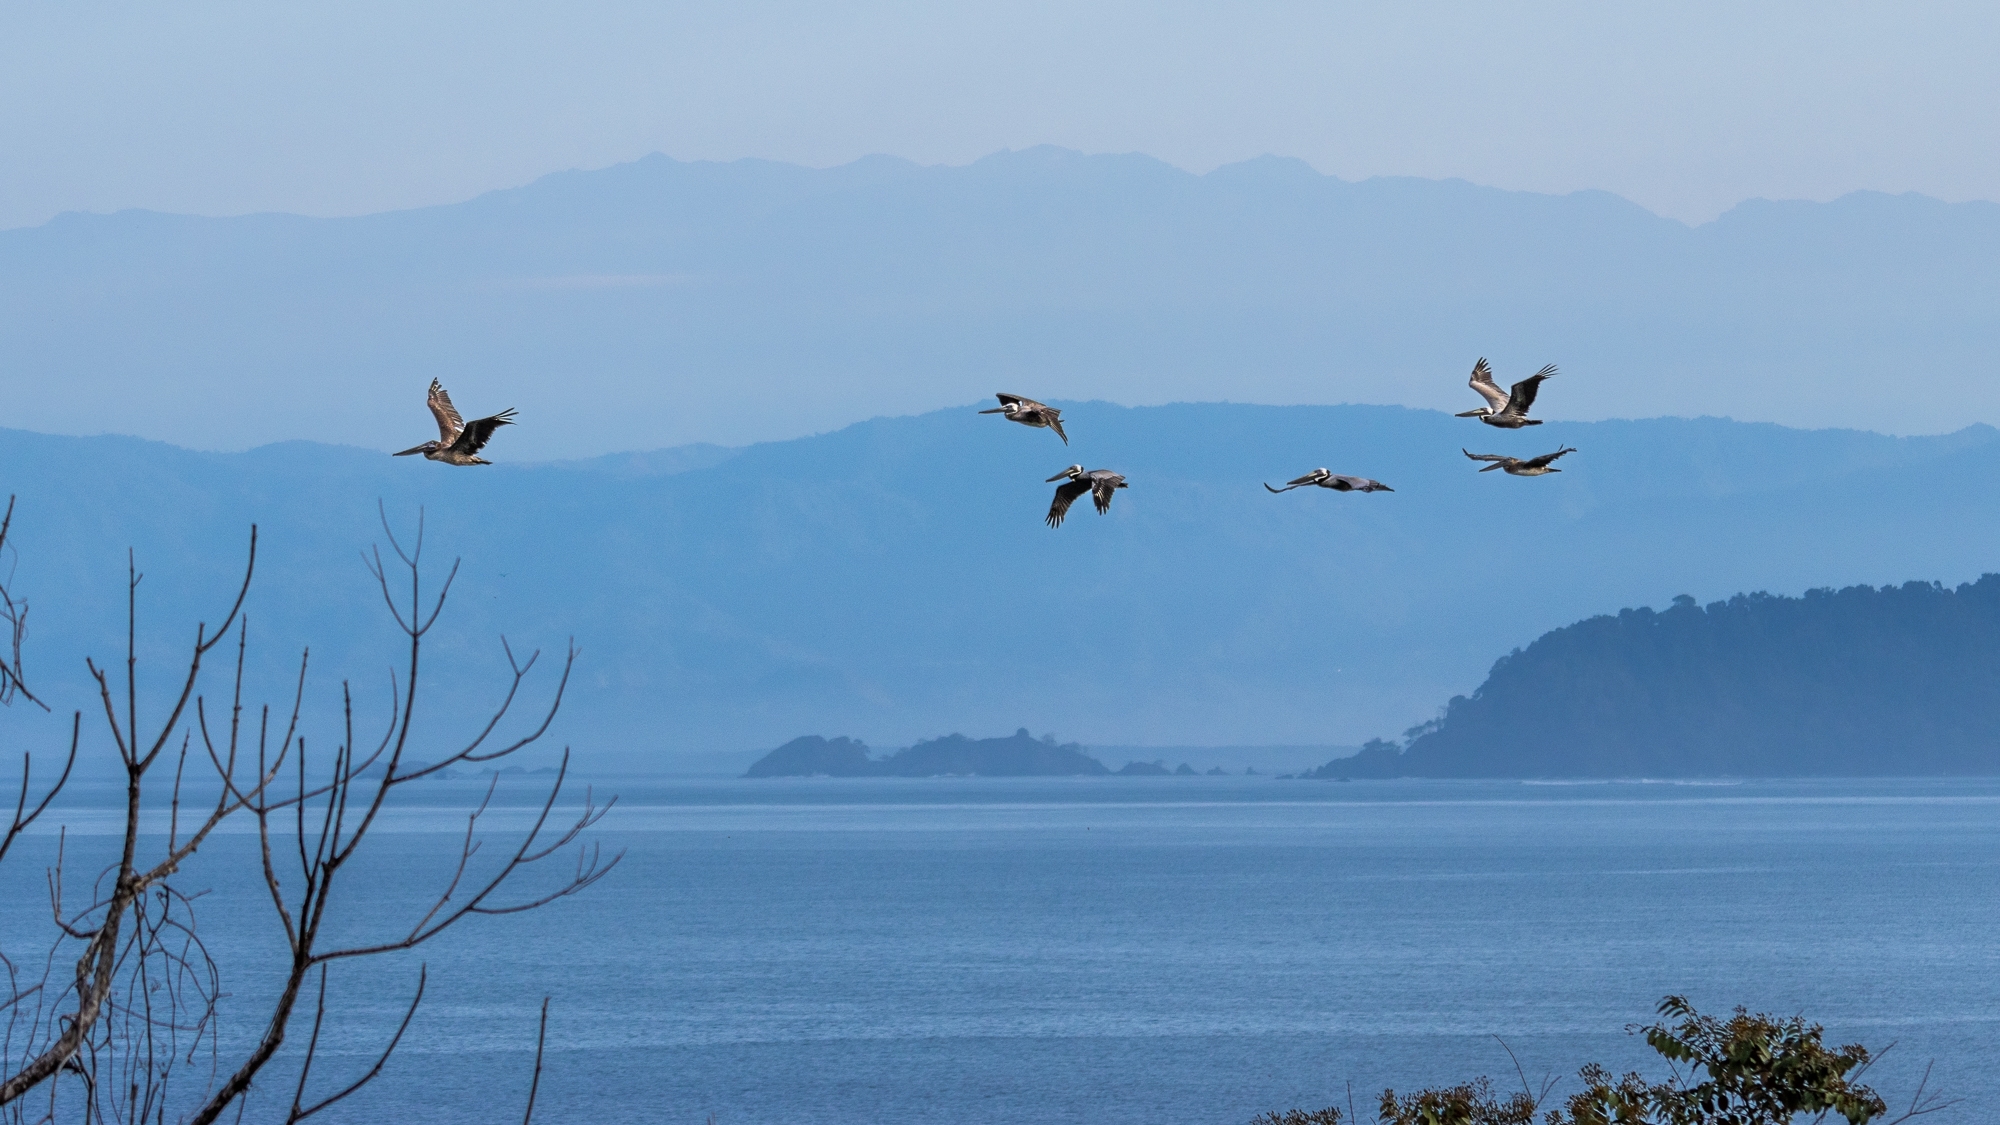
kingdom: Animalia
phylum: Chordata
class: Aves
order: Pelecaniformes
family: Pelecanidae
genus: Pelecanus
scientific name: Pelecanus occidentalis
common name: Brown pelican
